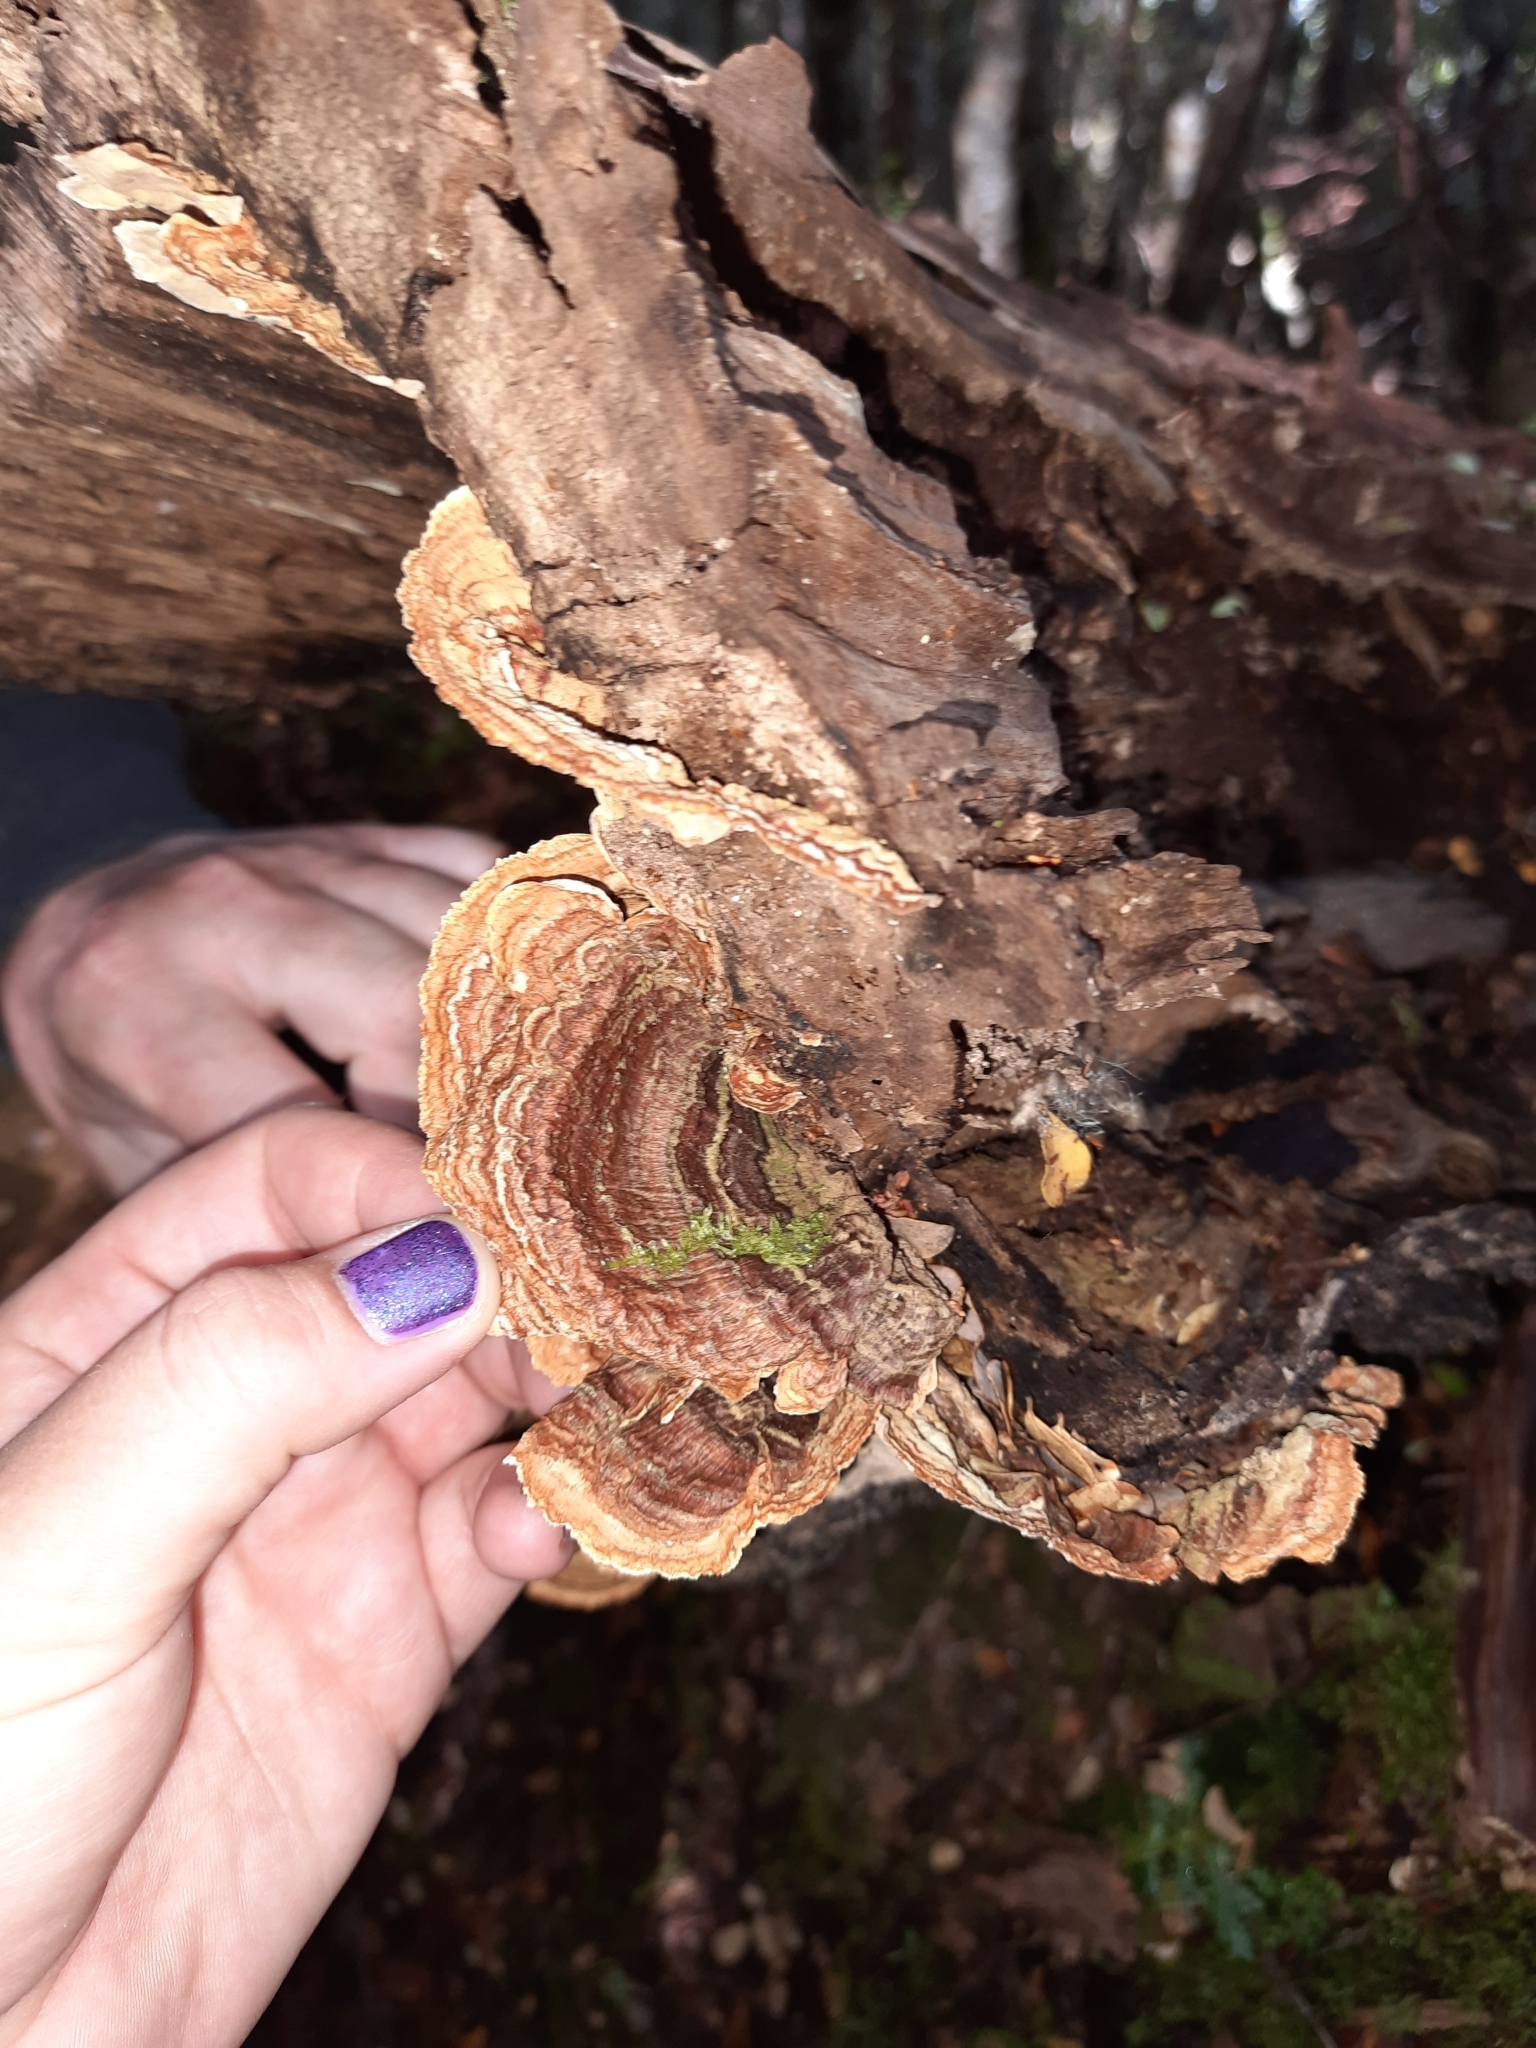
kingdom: Fungi
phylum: Basidiomycota
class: Agaricomycetes
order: Russulales
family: Stereaceae
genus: Stereum
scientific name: Stereum versicolor
